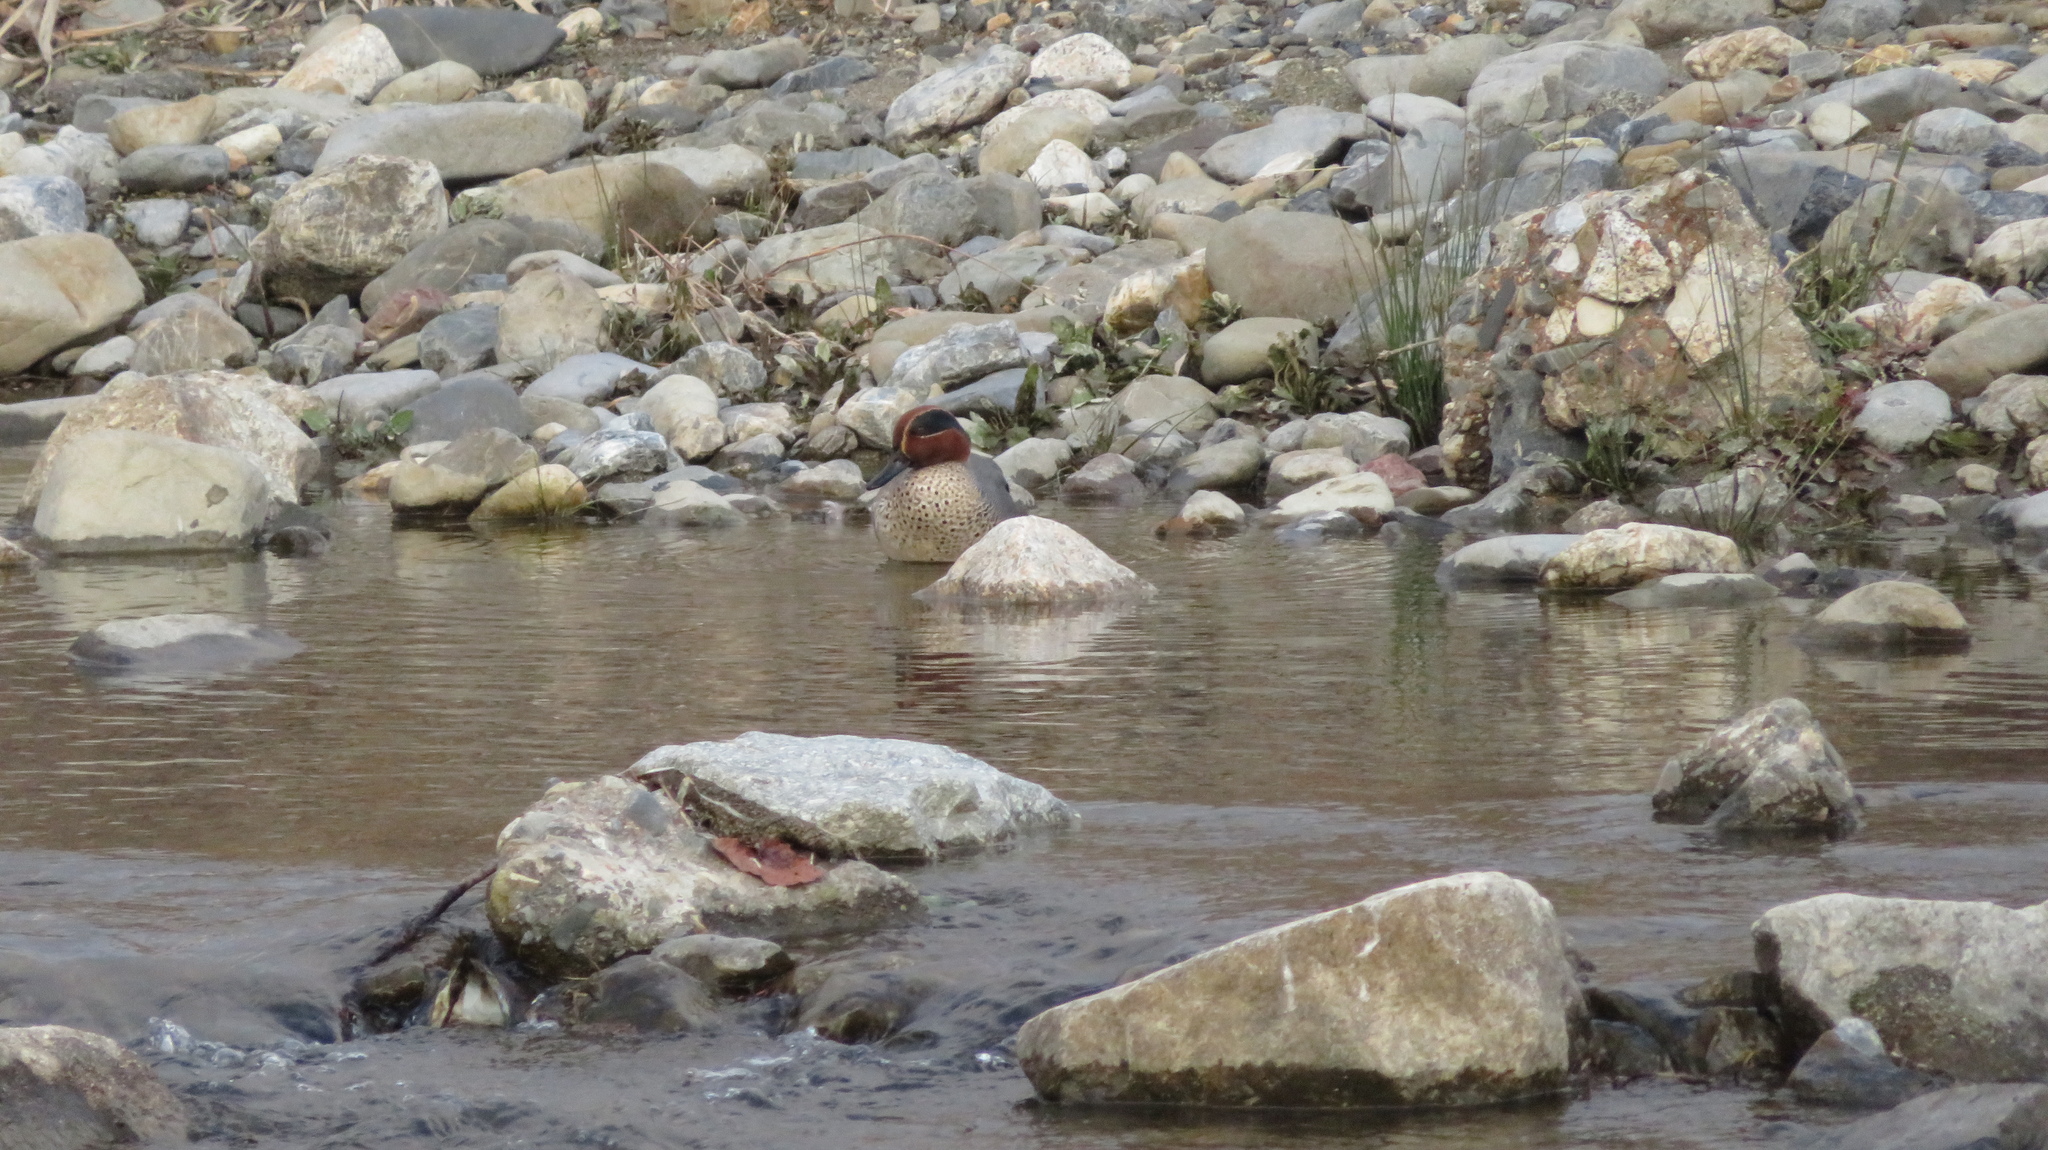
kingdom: Animalia
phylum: Chordata
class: Aves
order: Anseriformes
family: Anatidae
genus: Anas
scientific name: Anas crecca
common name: Eurasian teal
